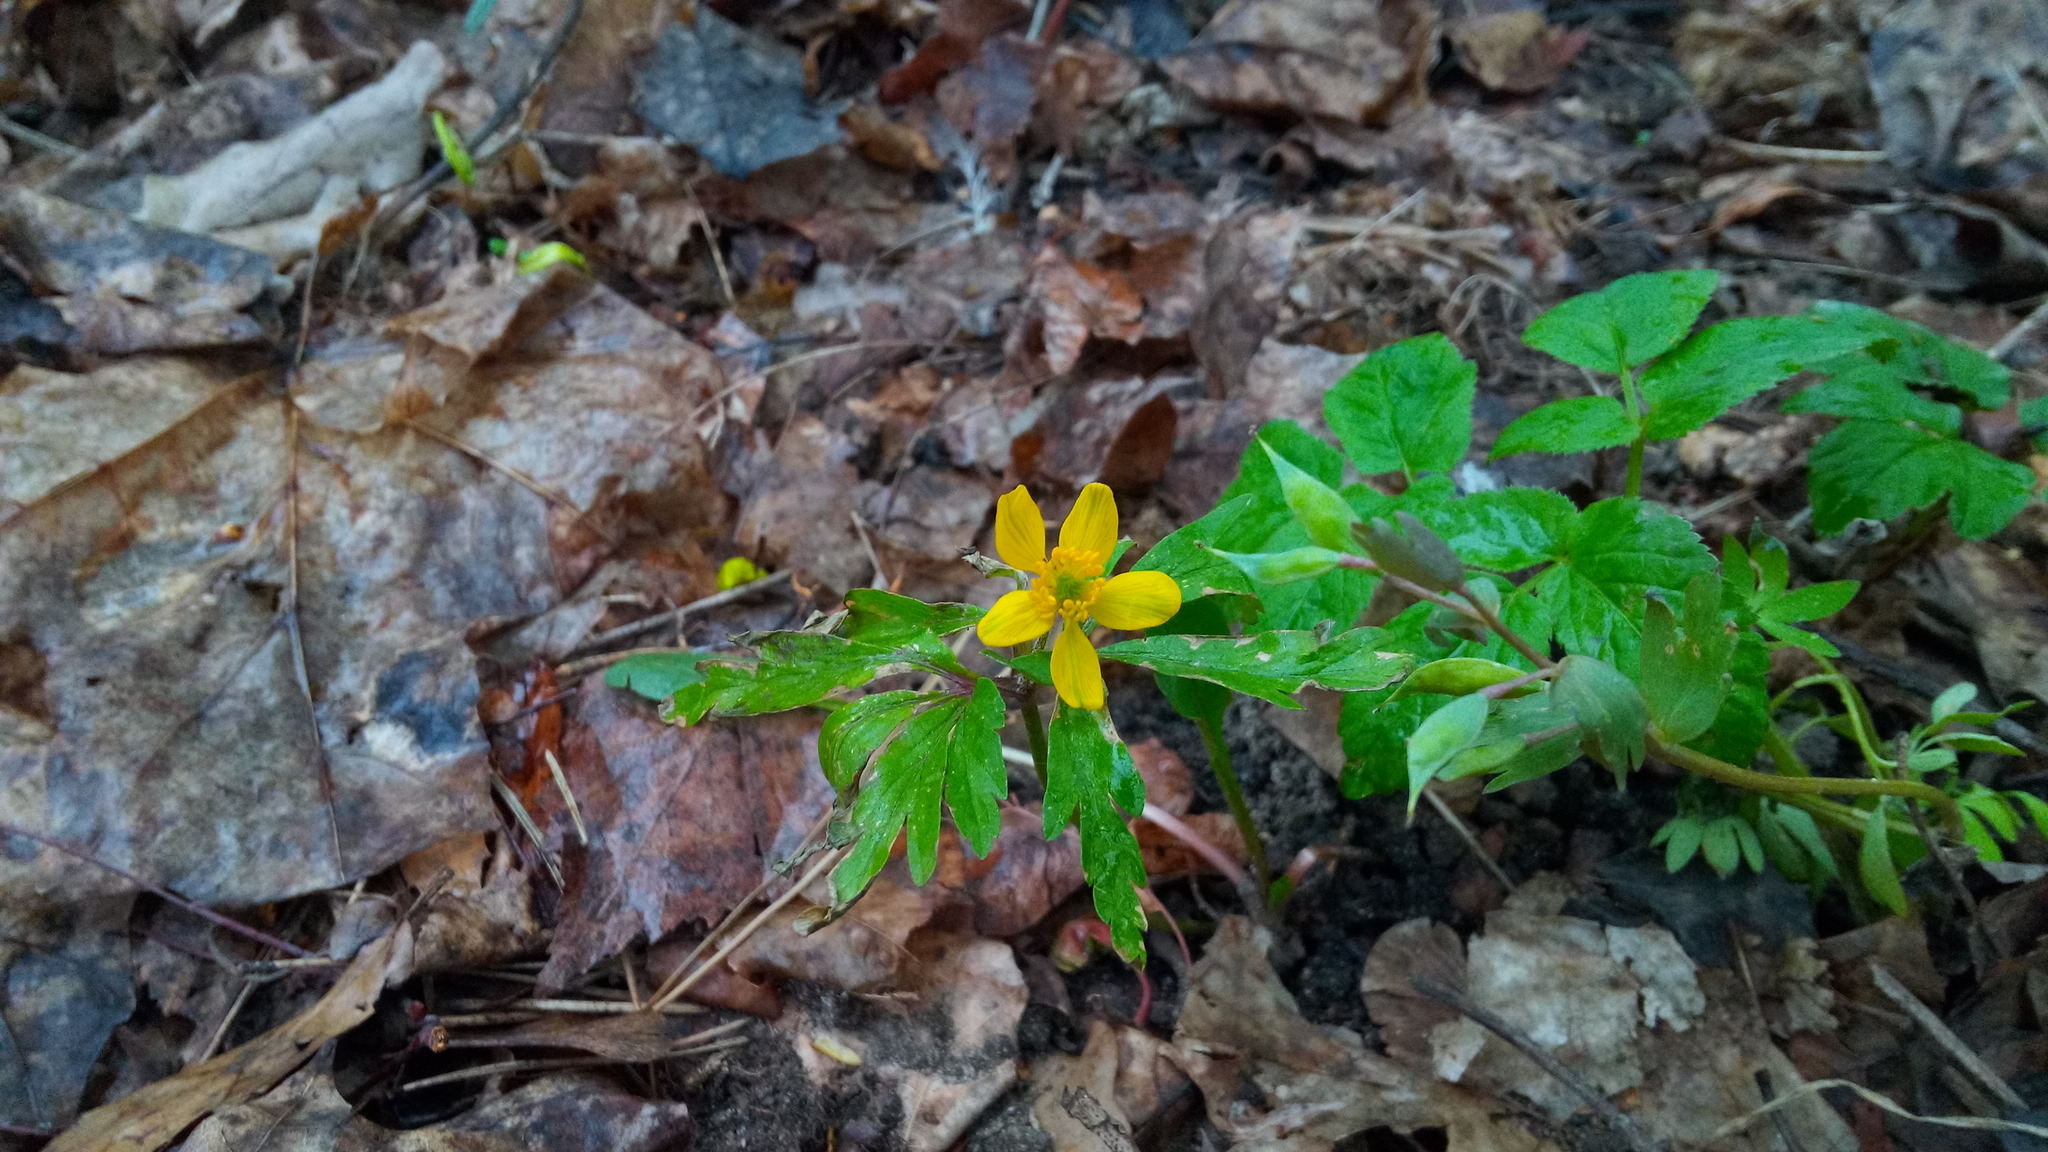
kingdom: Plantae
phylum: Tracheophyta
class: Magnoliopsida
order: Ranunculales
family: Ranunculaceae
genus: Anemone
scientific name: Anemone ranunculoides
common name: Yellow anemone
